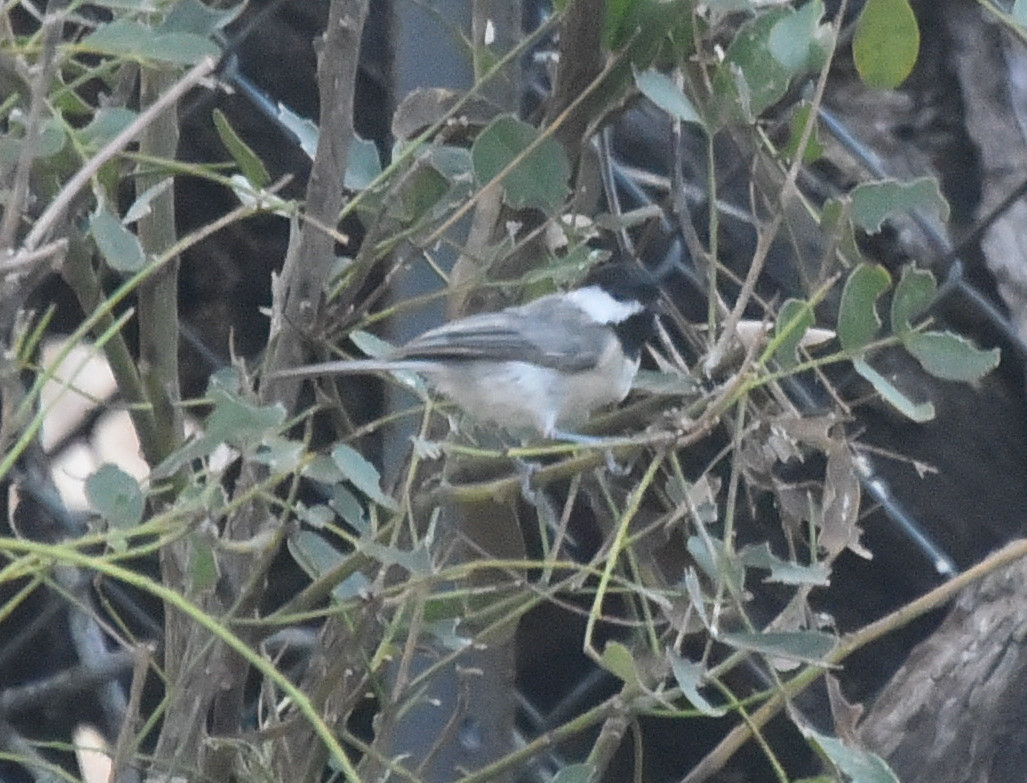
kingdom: Animalia
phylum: Chordata
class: Aves
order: Passeriformes
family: Paridae
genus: Poecile
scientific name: Poecile carolinensis
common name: Carolina chickadee
